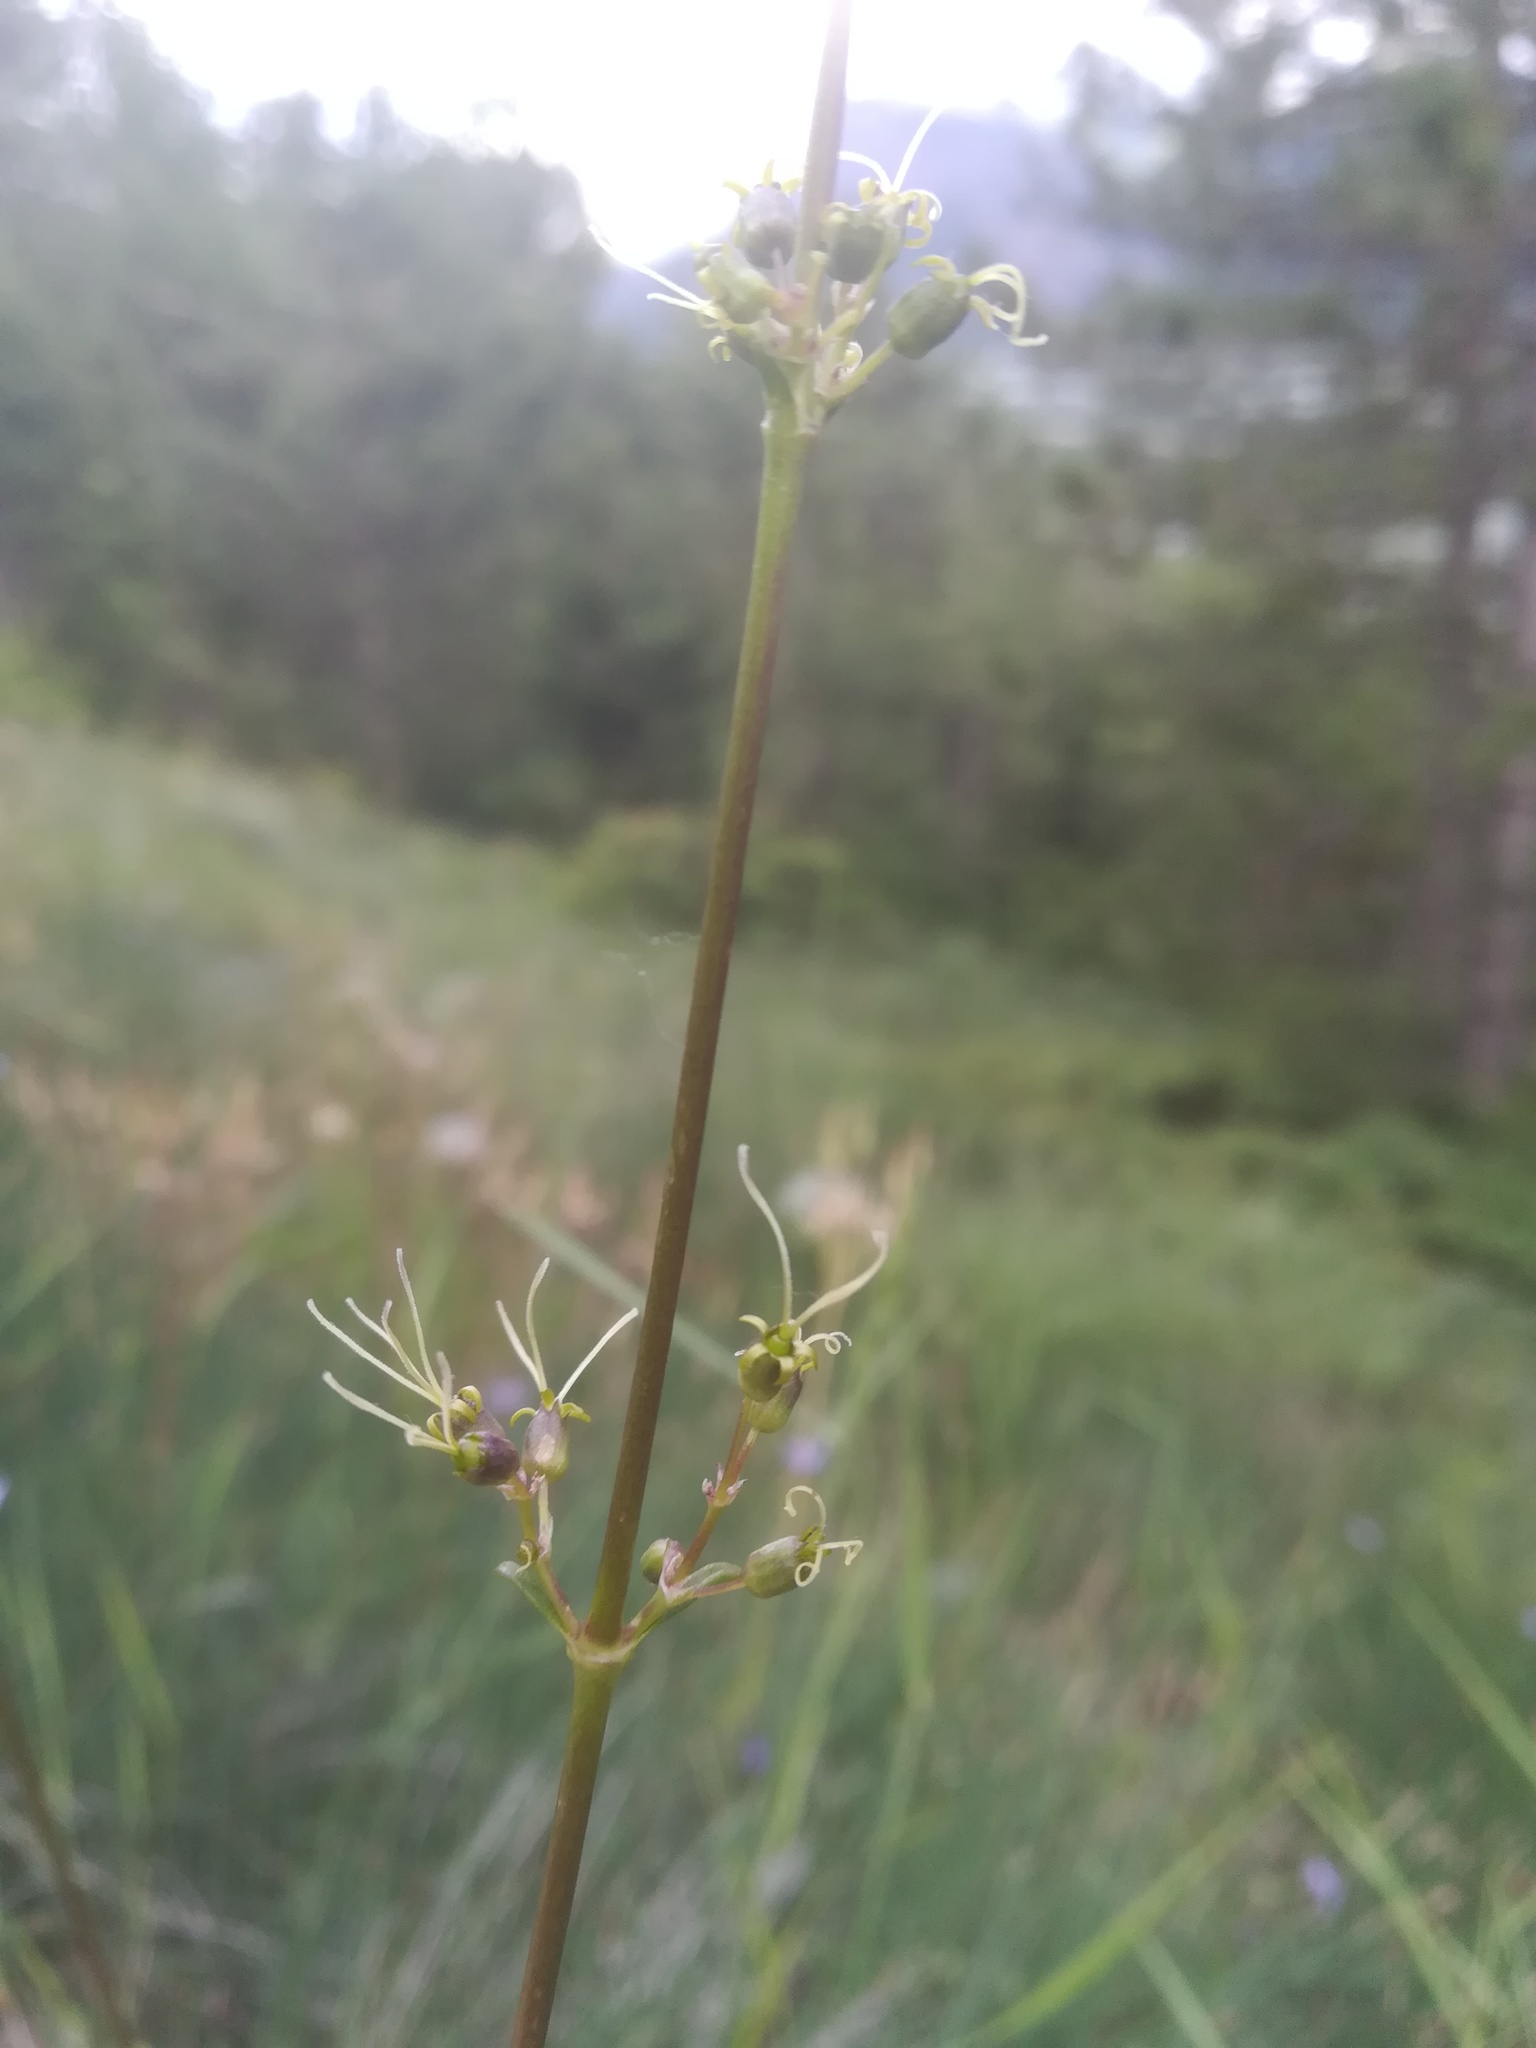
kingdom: Plantae
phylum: Tracheophyta
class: Magnoliopsida
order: Caryophyllales
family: Caryophyllaceae
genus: Silene
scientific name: Silene otites
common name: Spanish catchfly
